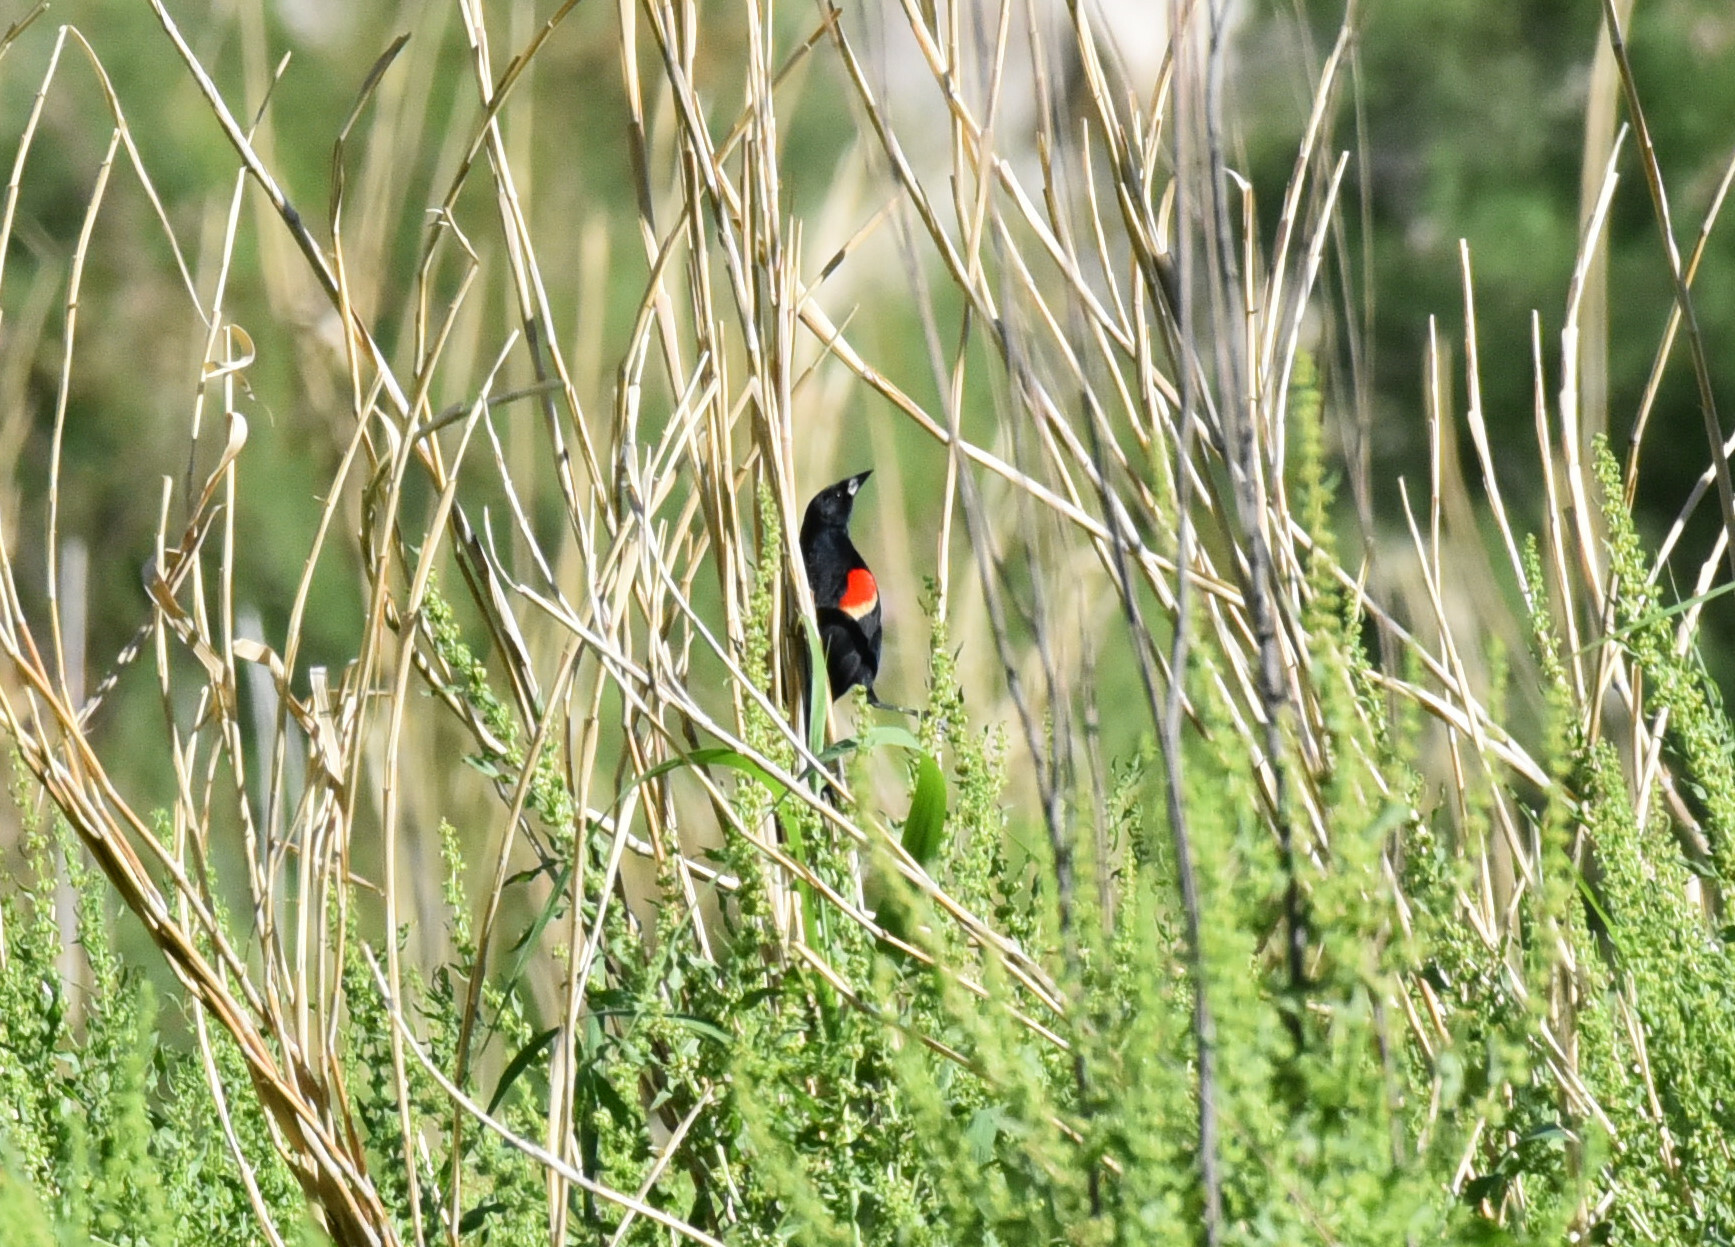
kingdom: Animalia
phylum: Chordata
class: Aves
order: Passeriformes
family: Icteridae
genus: Agelaius
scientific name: Agelaius phoeniceus
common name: Red-winged blackbird
